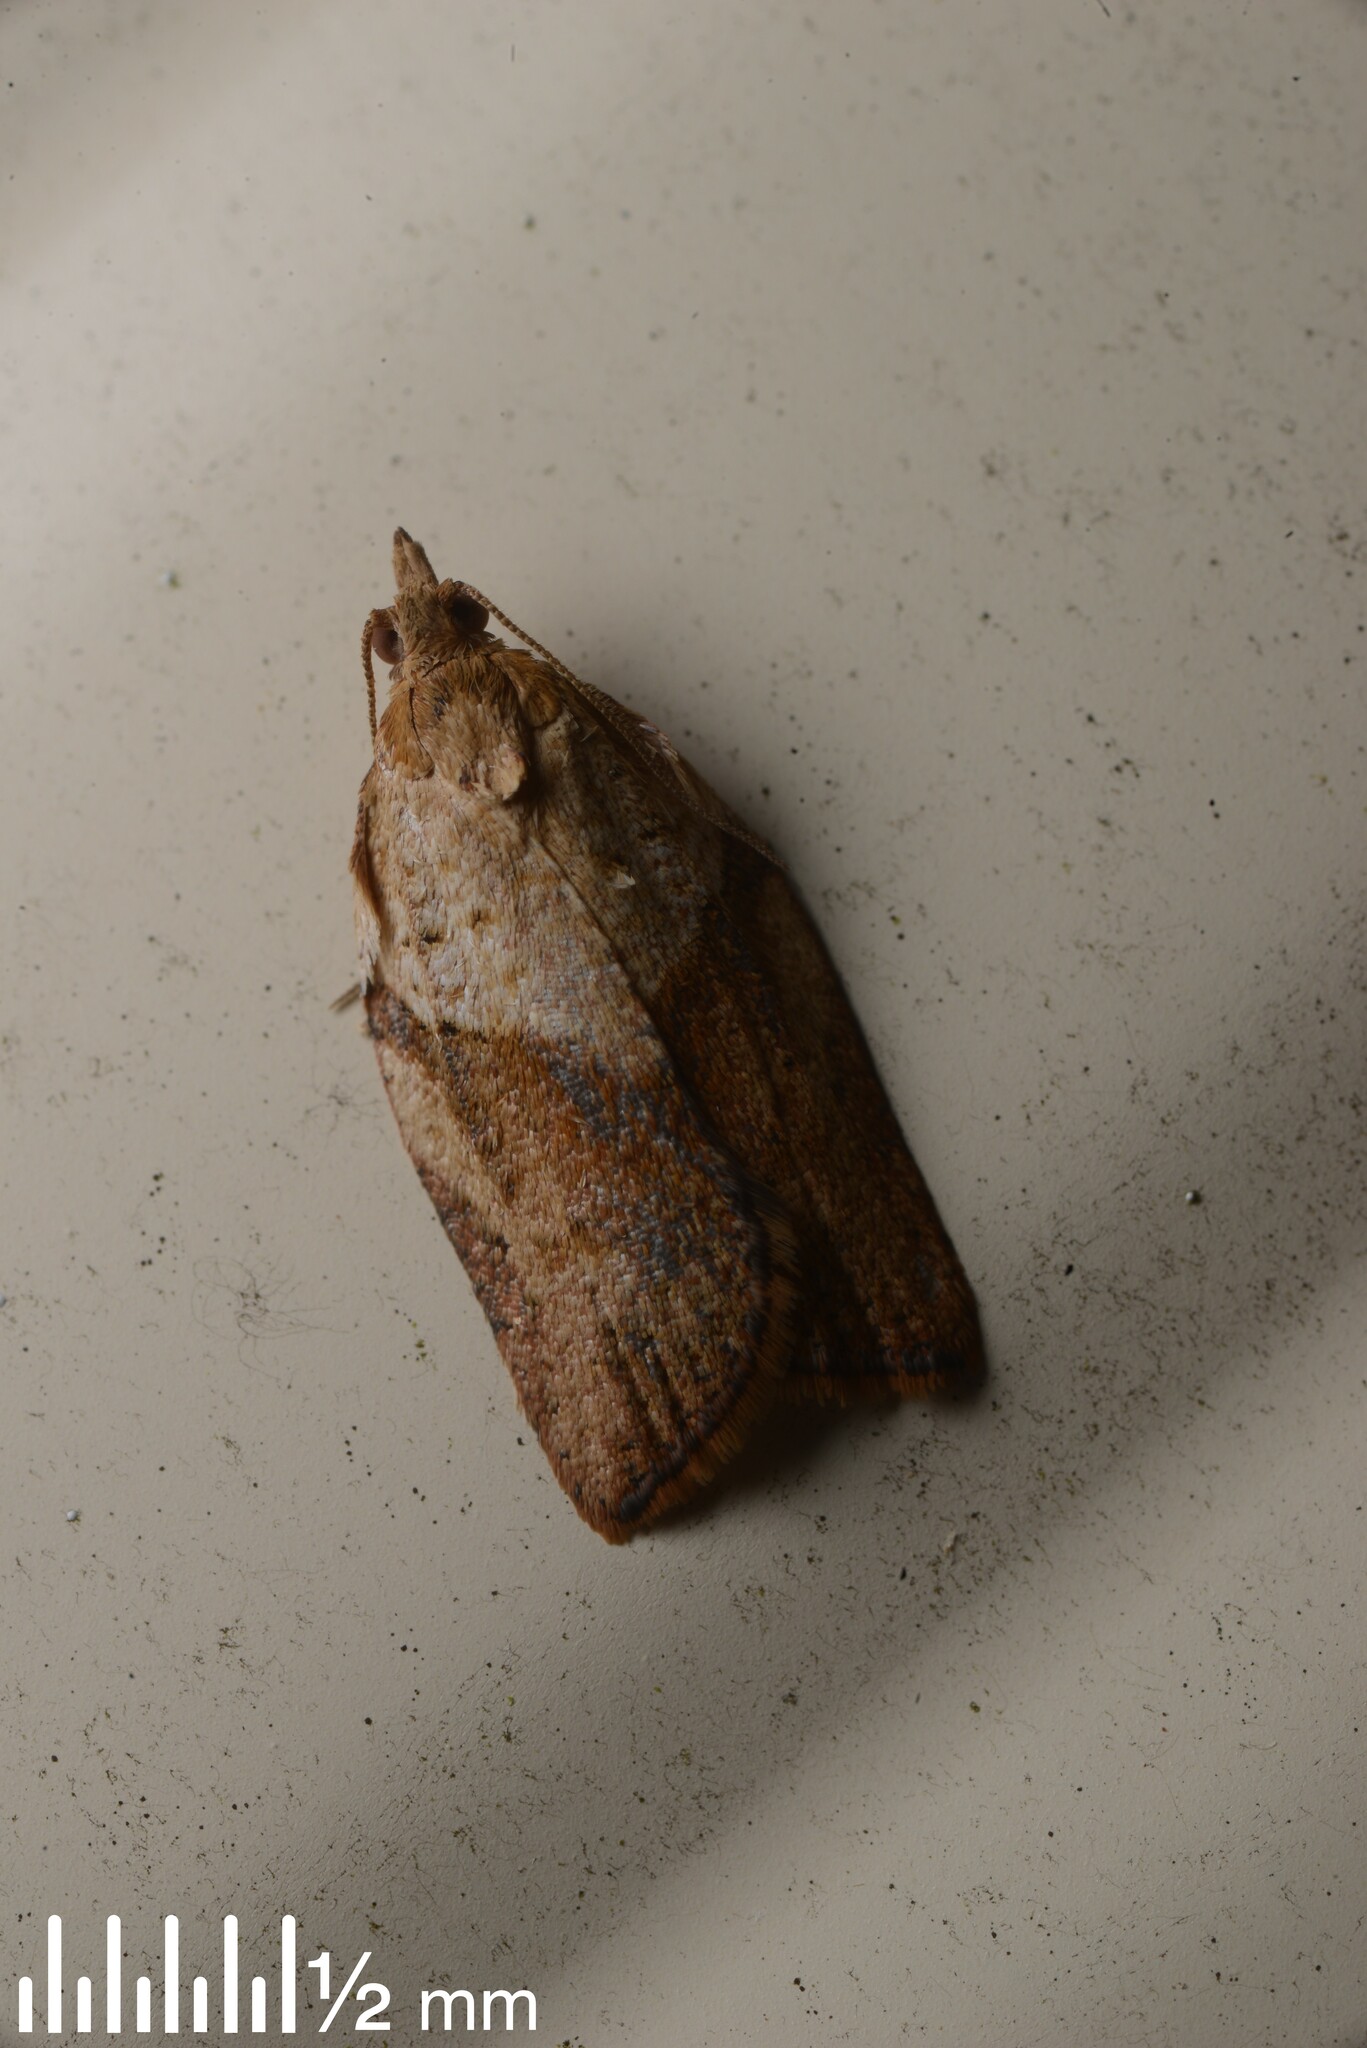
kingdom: Animalia
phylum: Arthropoda
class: Insecta
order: Lepidoptera
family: Tortricidae
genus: Epiphyas
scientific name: Epiphyas postvittana
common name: Light brown apple moth
